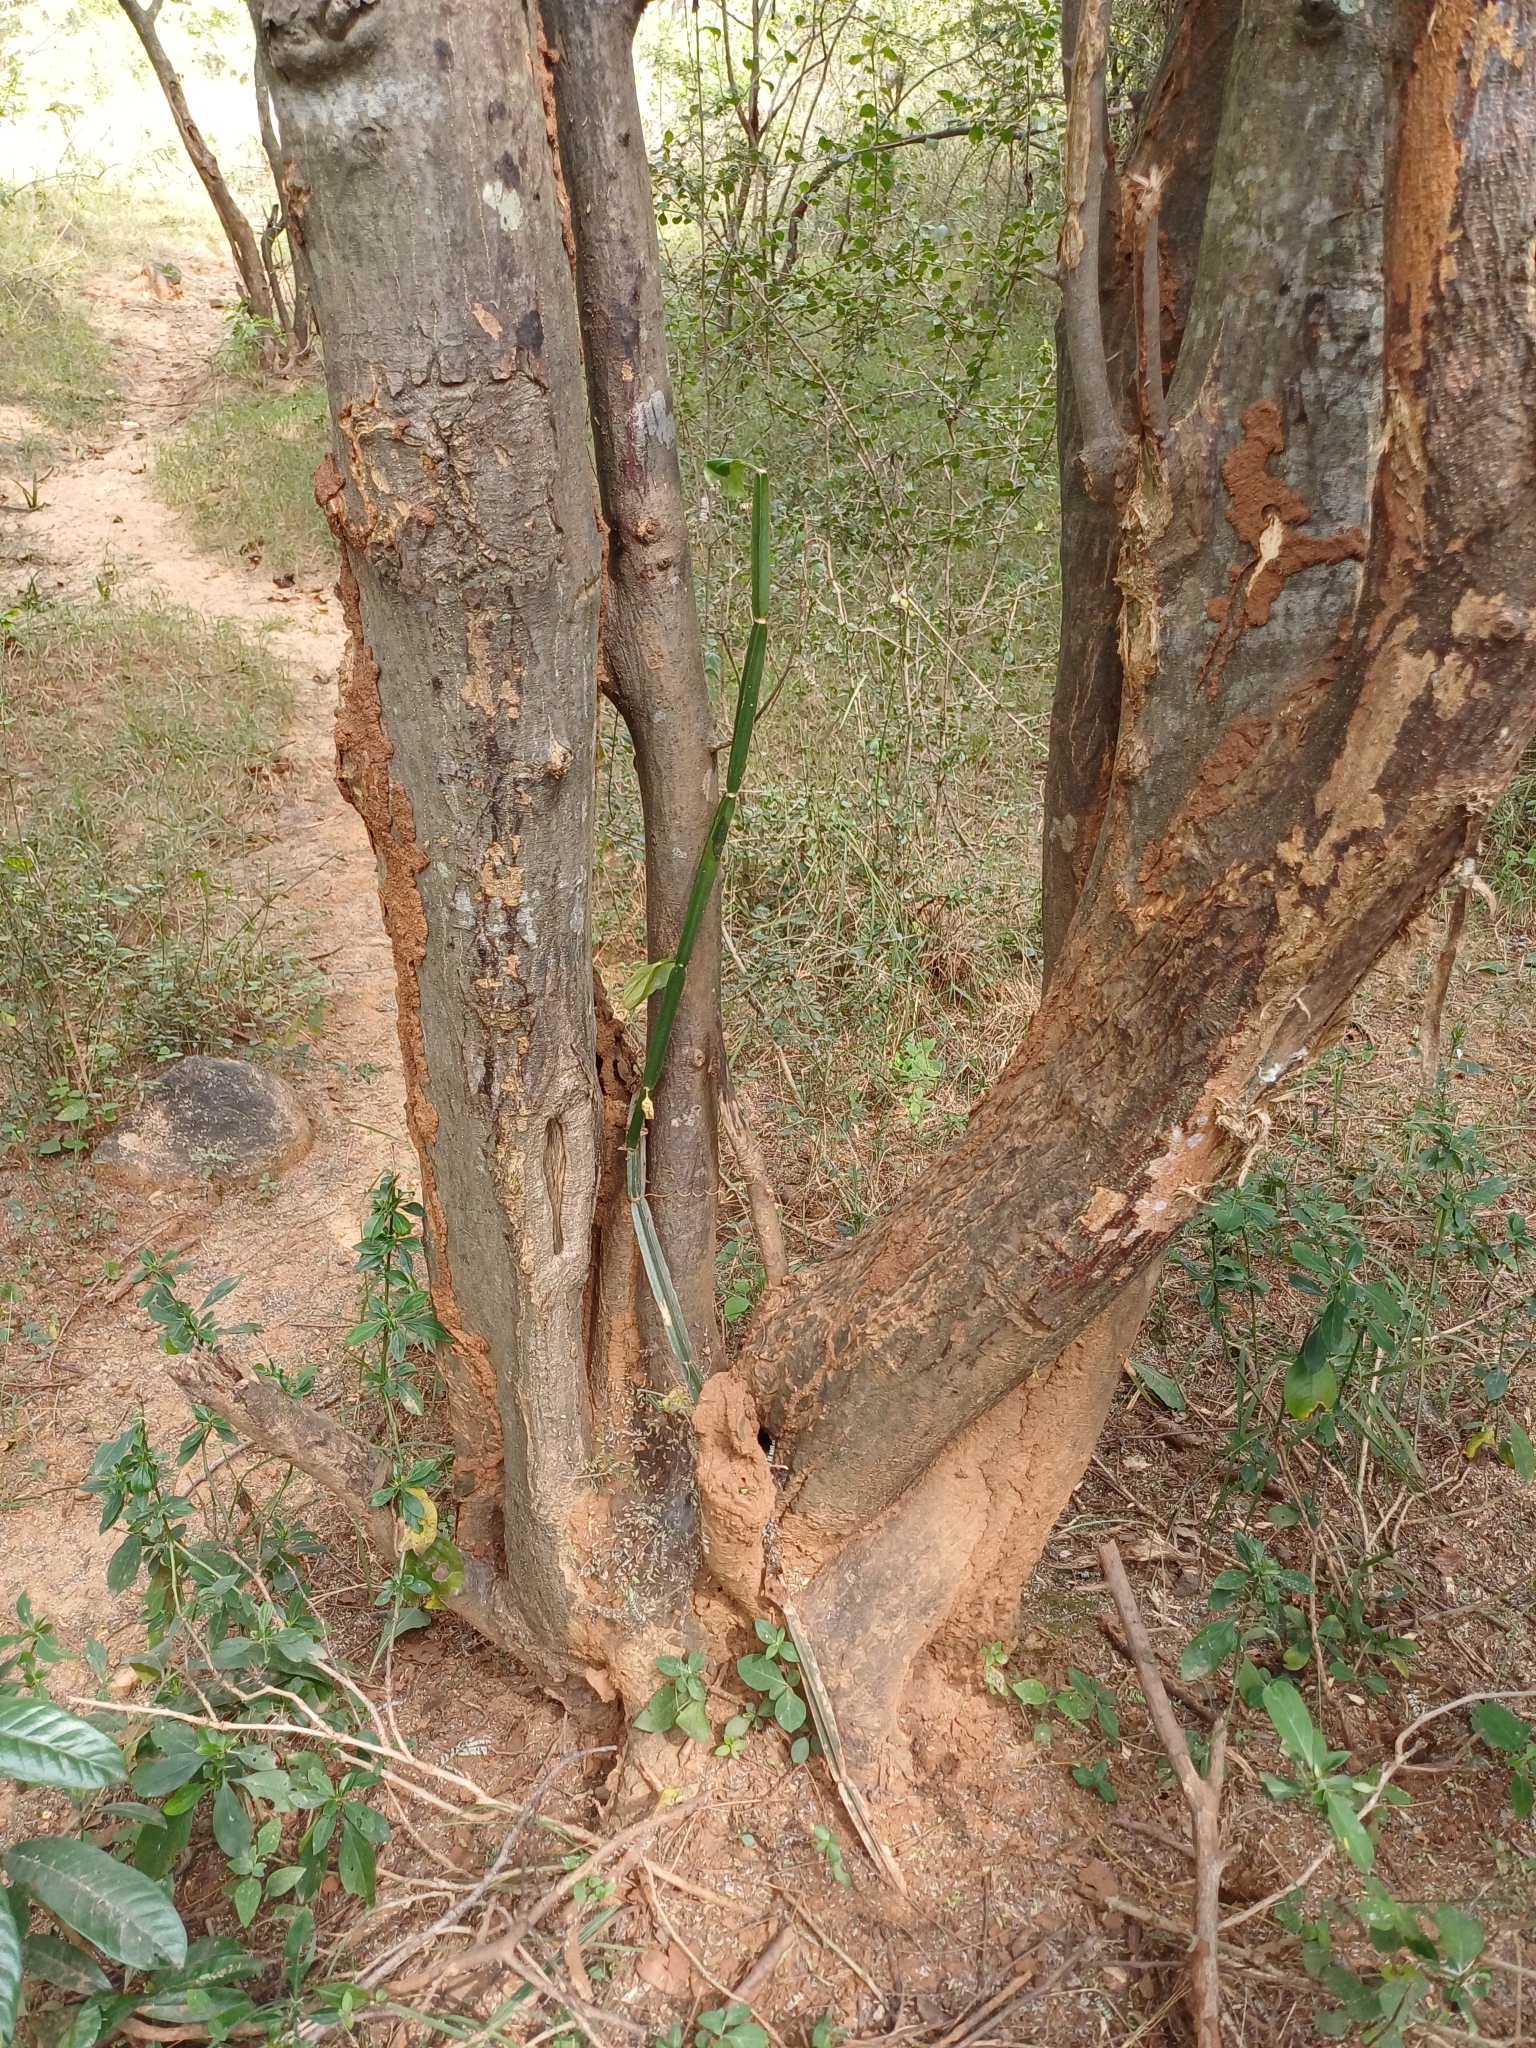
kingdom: Plantae
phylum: Tracheophyta
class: Magnoliopsida
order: Vitales
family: Vitaceae
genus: Cissus
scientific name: Cissus quadrangularis
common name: Veldt-grape
